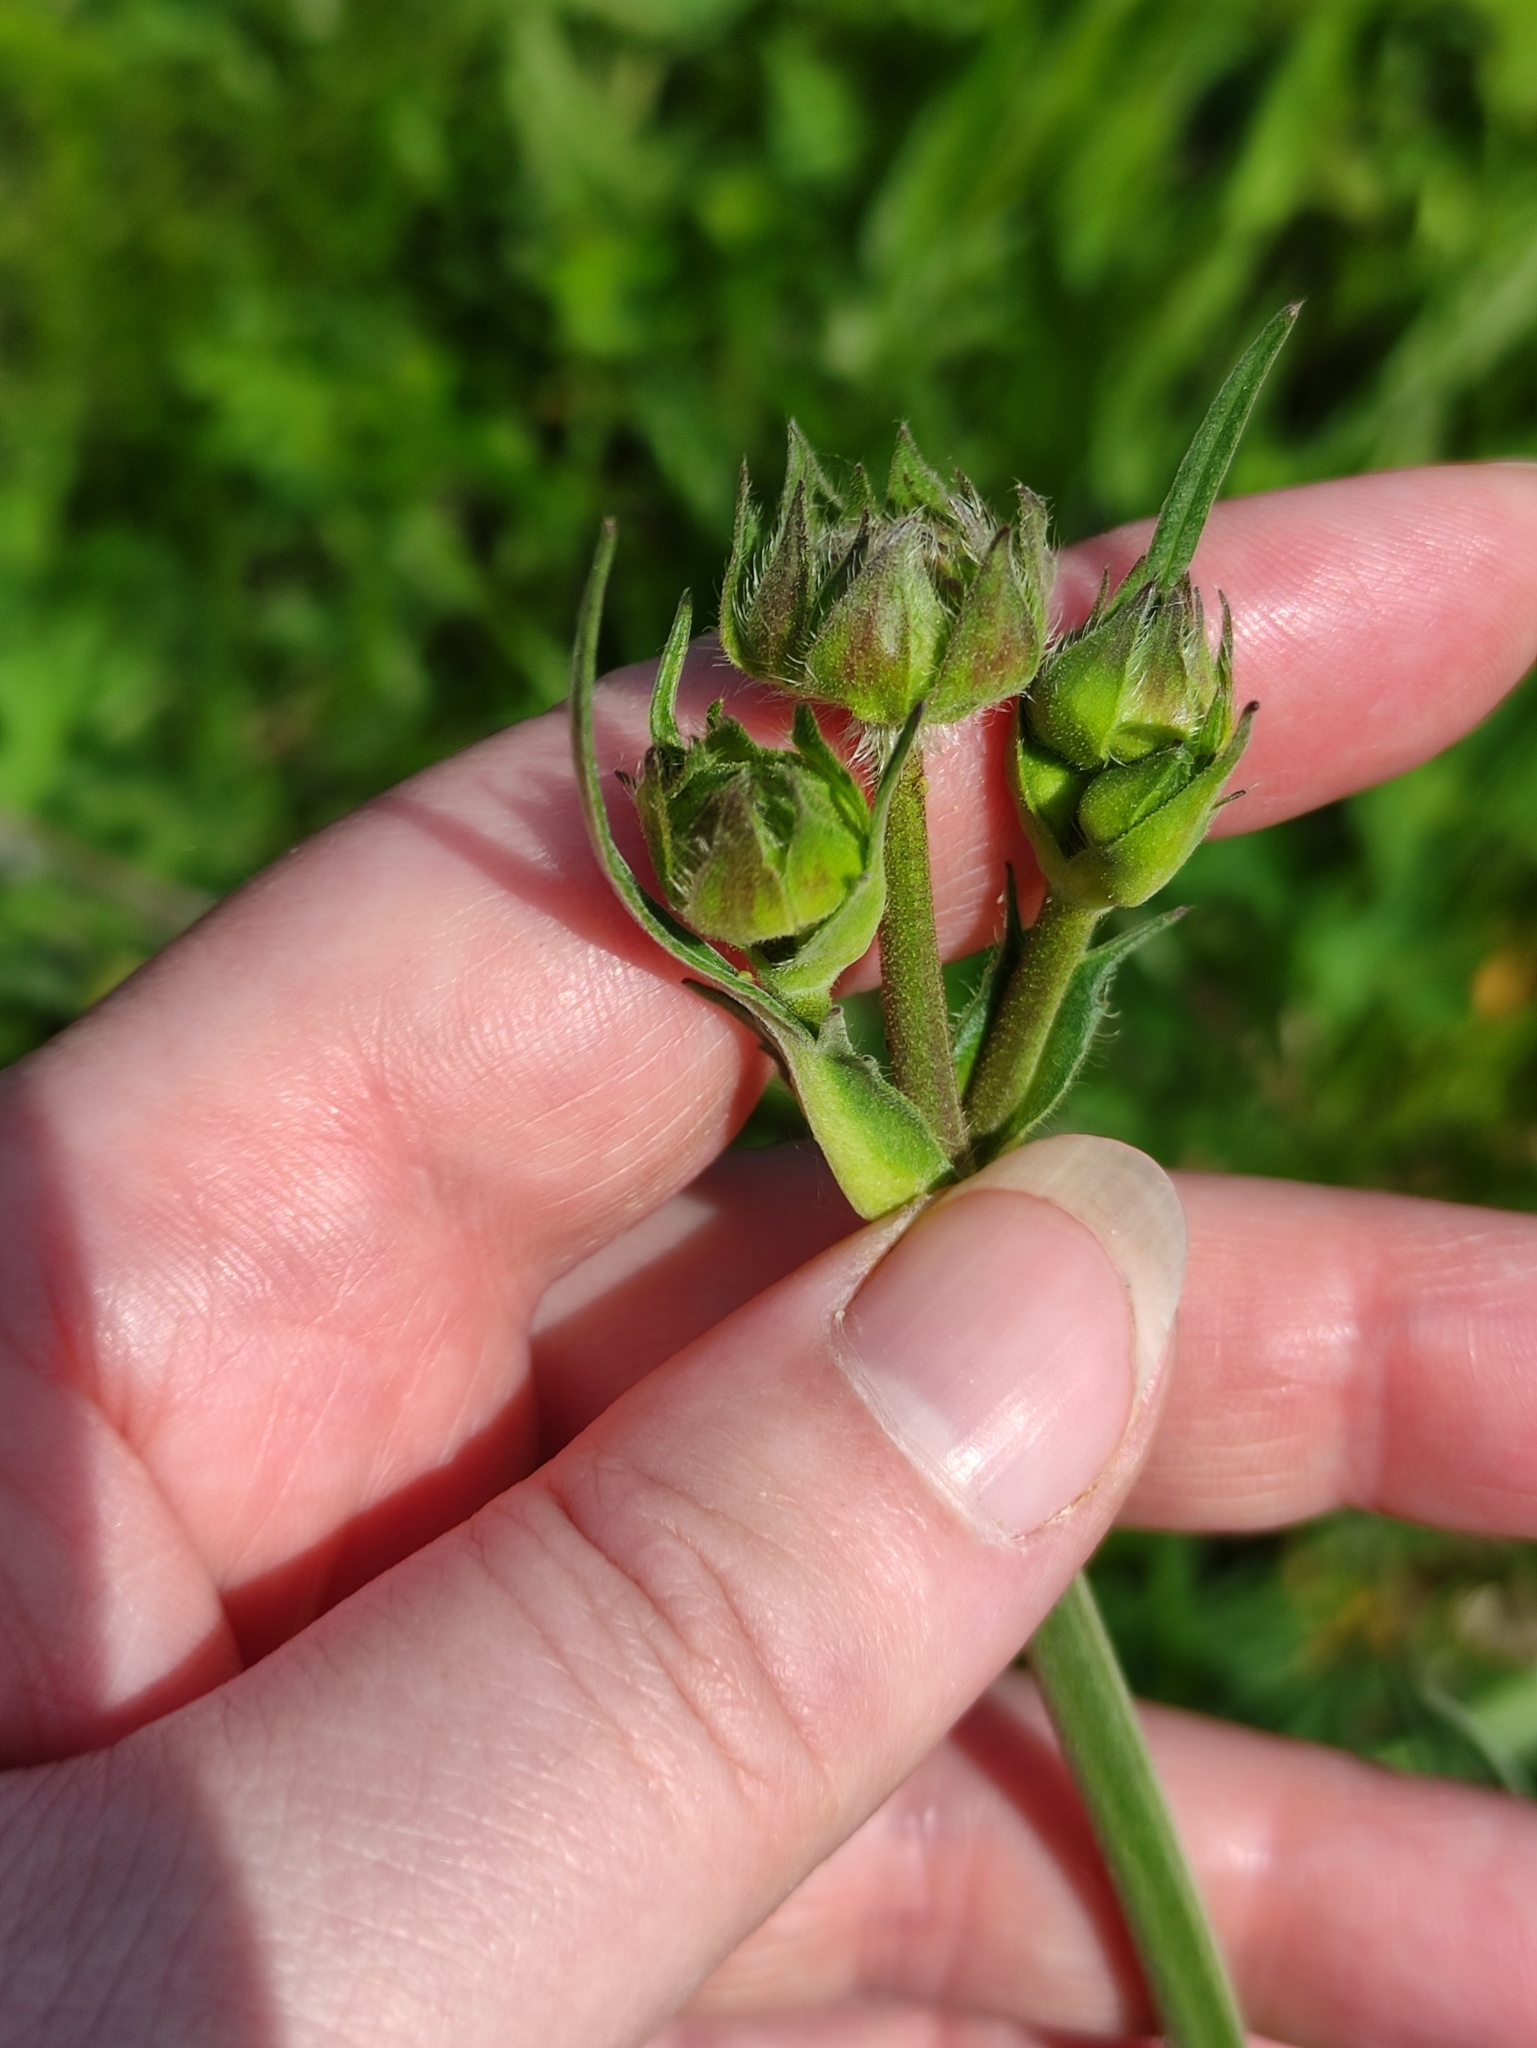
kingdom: Plantae
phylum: Tracheophyta
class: Magnoliopsida
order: Dipsacales
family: Caprifoliaceae
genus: Knautia
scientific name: Knautia arvensis
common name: Field scabiosa
